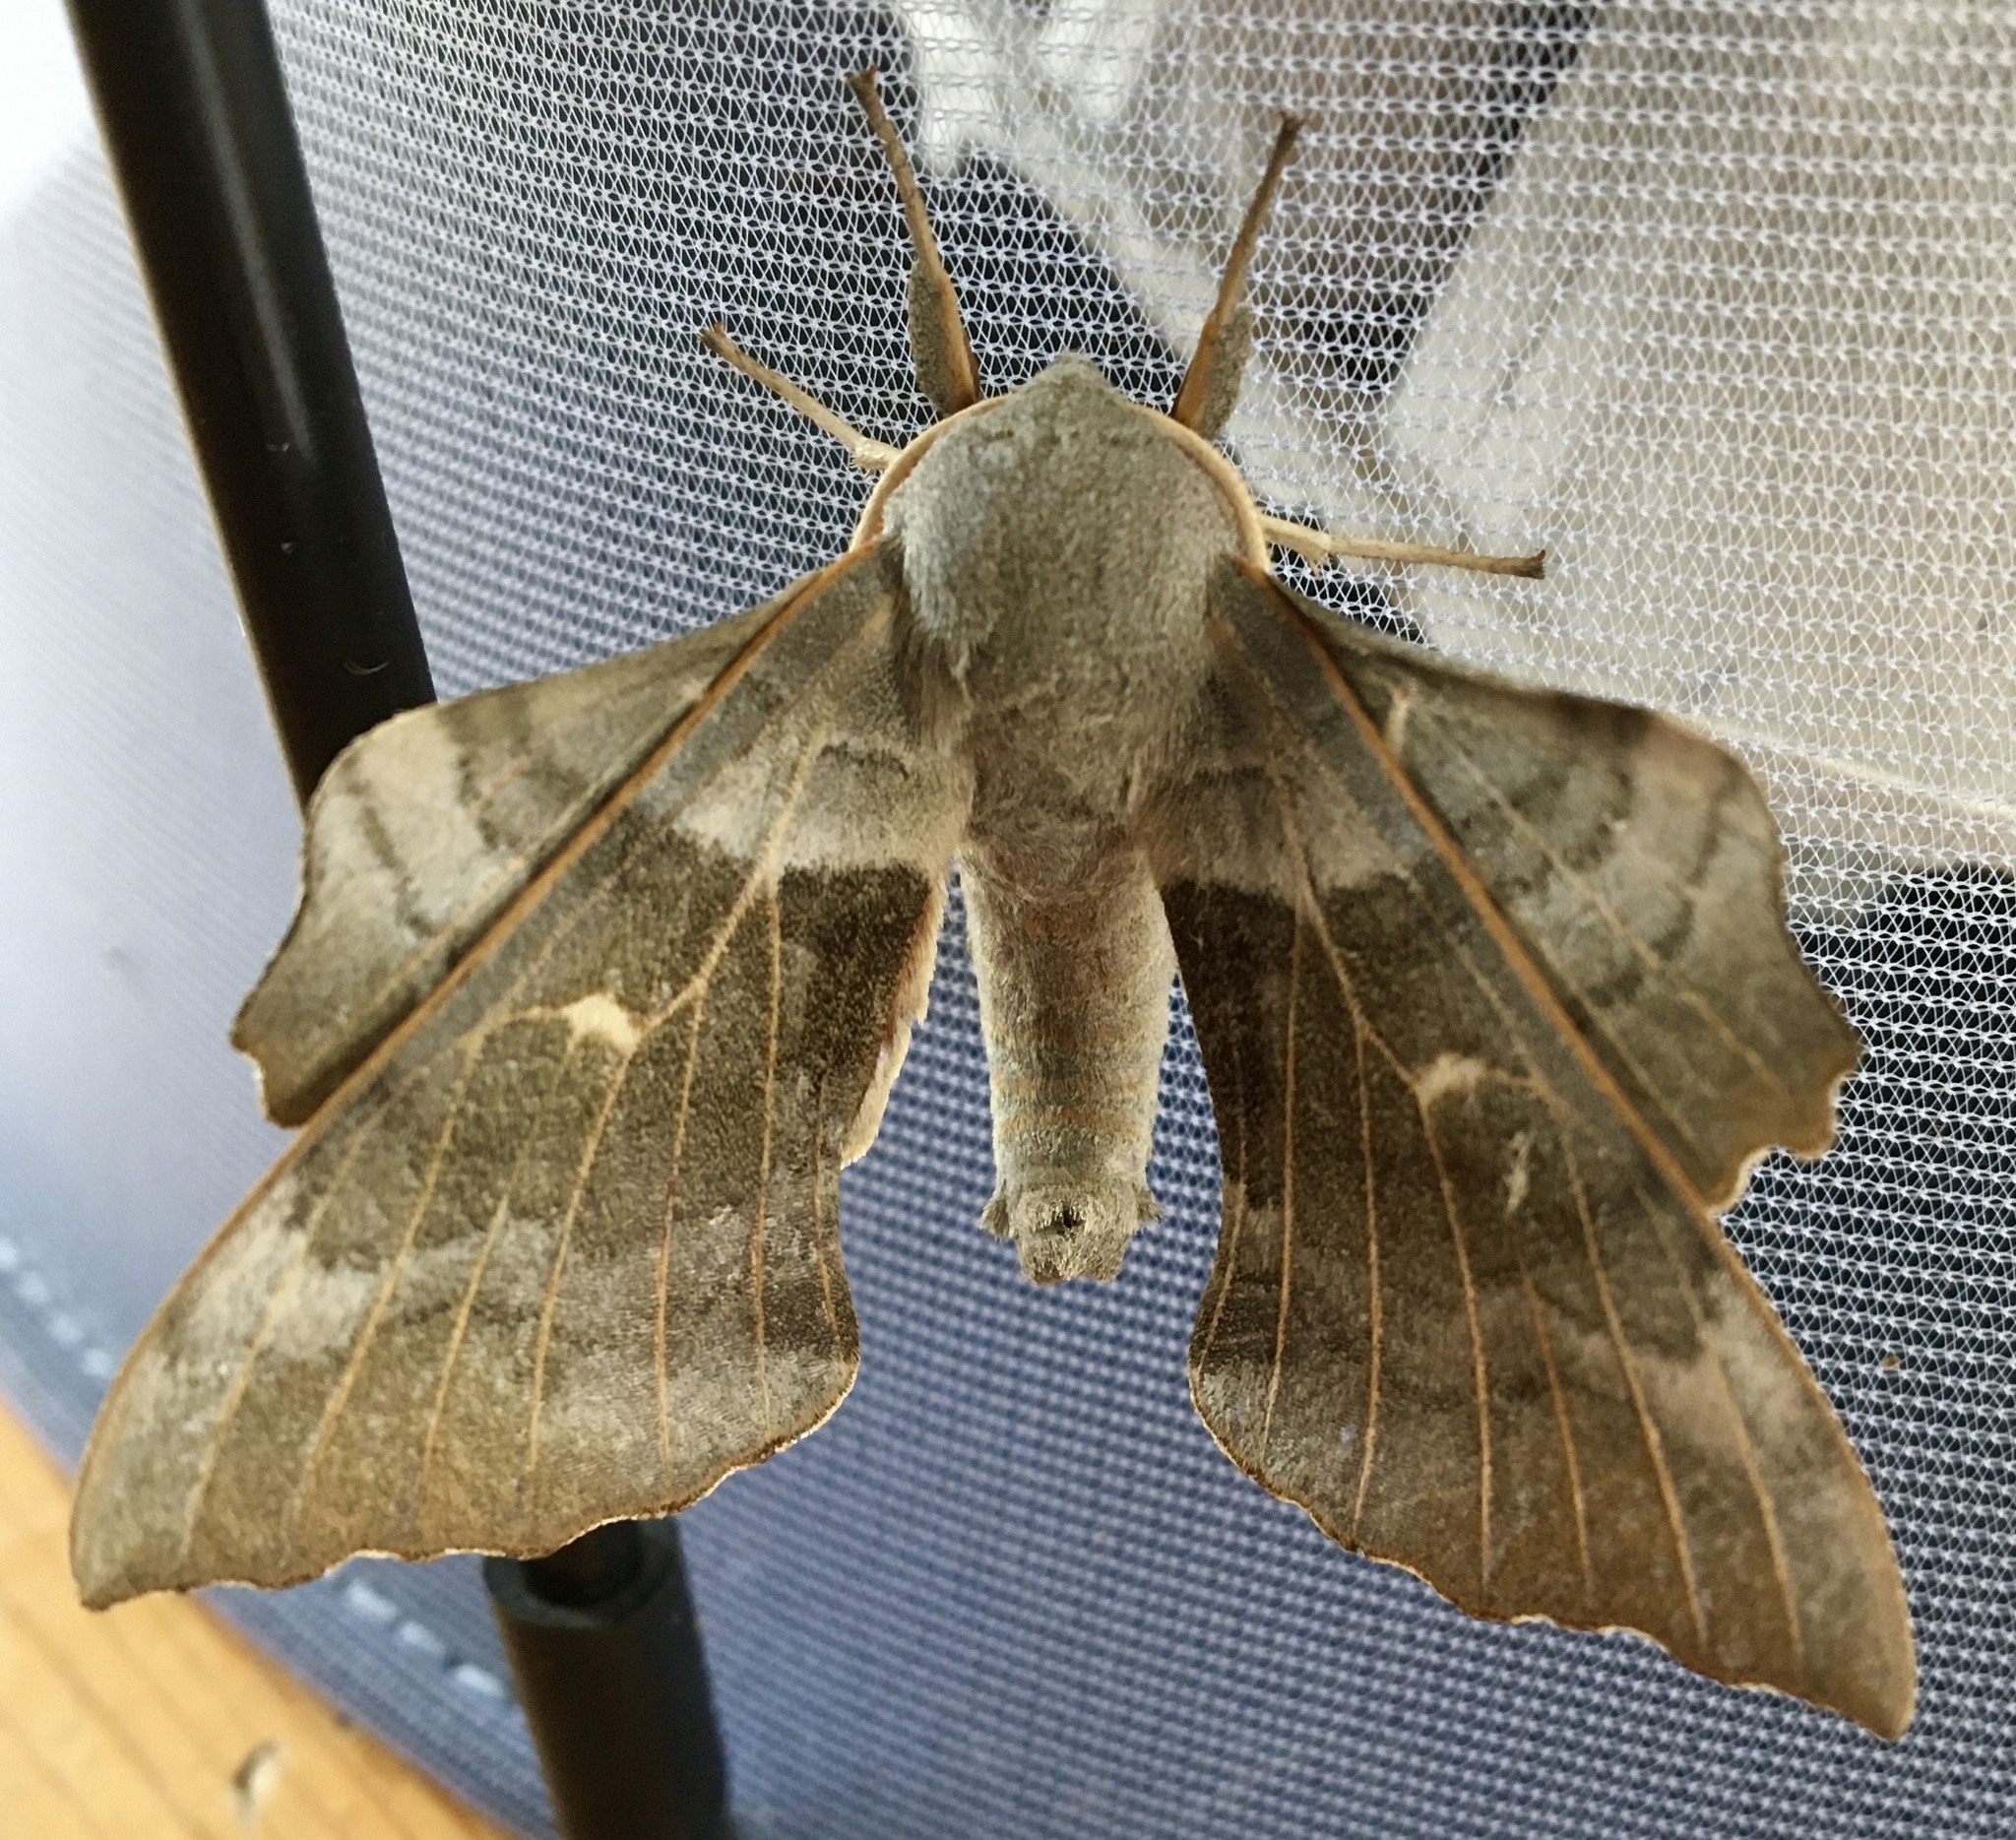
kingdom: Animalia
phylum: Arthropoda
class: Insecta
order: Lepidoptera
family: Sphingidae
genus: Laothoe
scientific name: Laothoe populi
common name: Poplar hawk-moth
